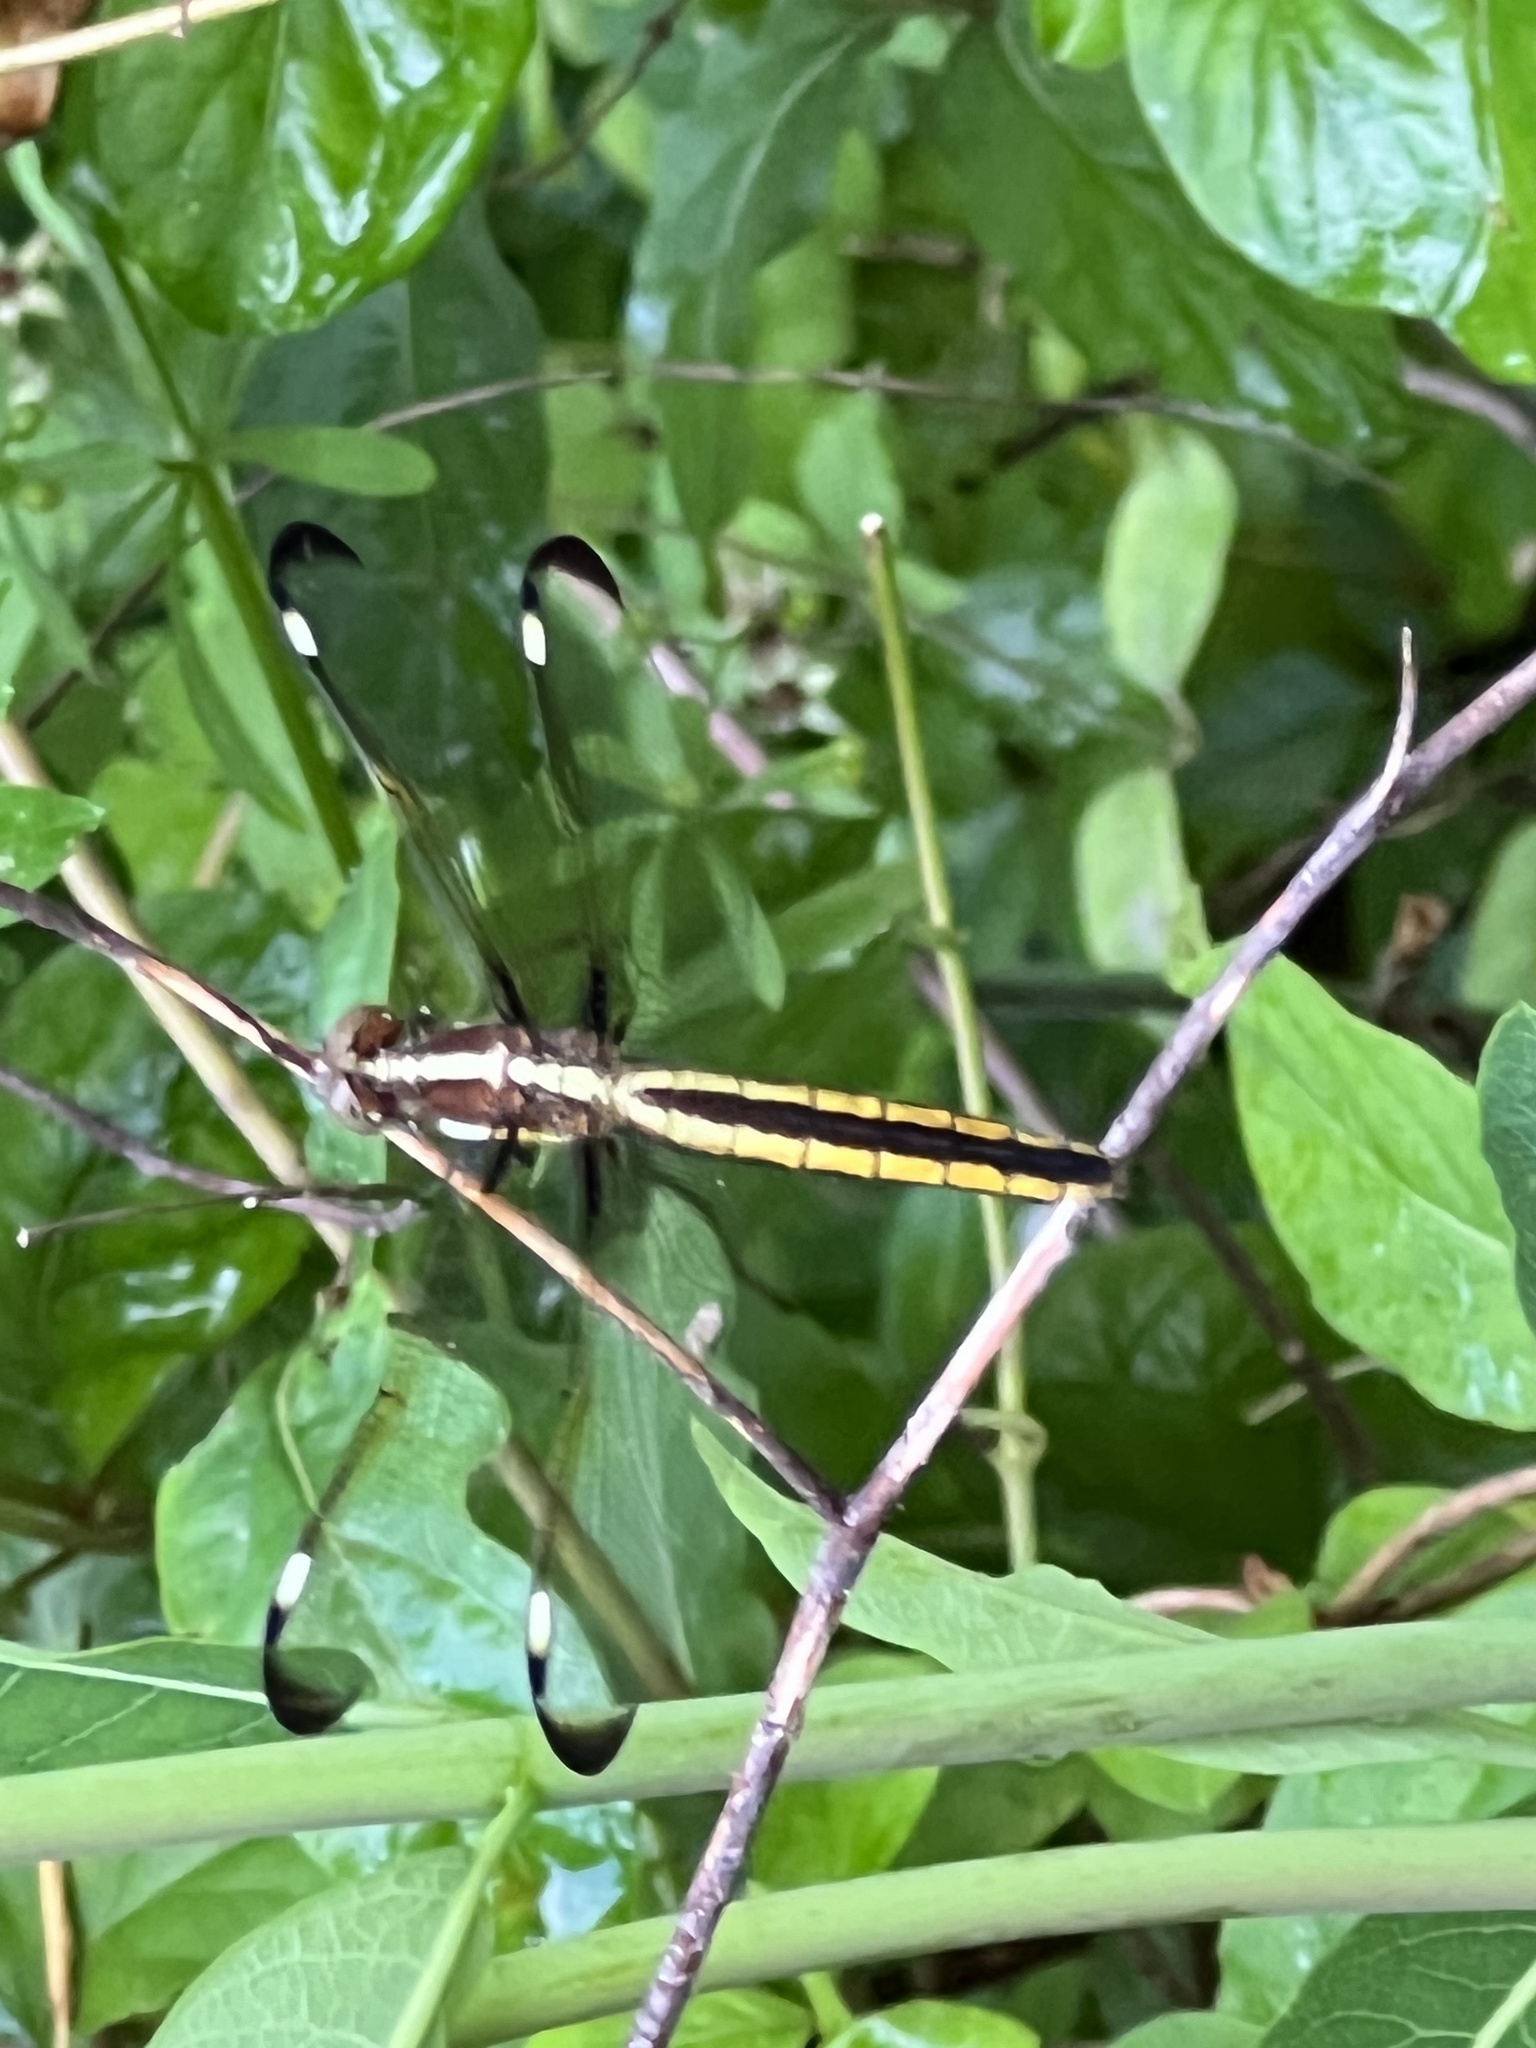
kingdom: Animalia
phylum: Arthropoda
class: Insecta
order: Odonata
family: Libellulidae
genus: Libellula
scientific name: Libellula cyanea
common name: Spangled skimmer
